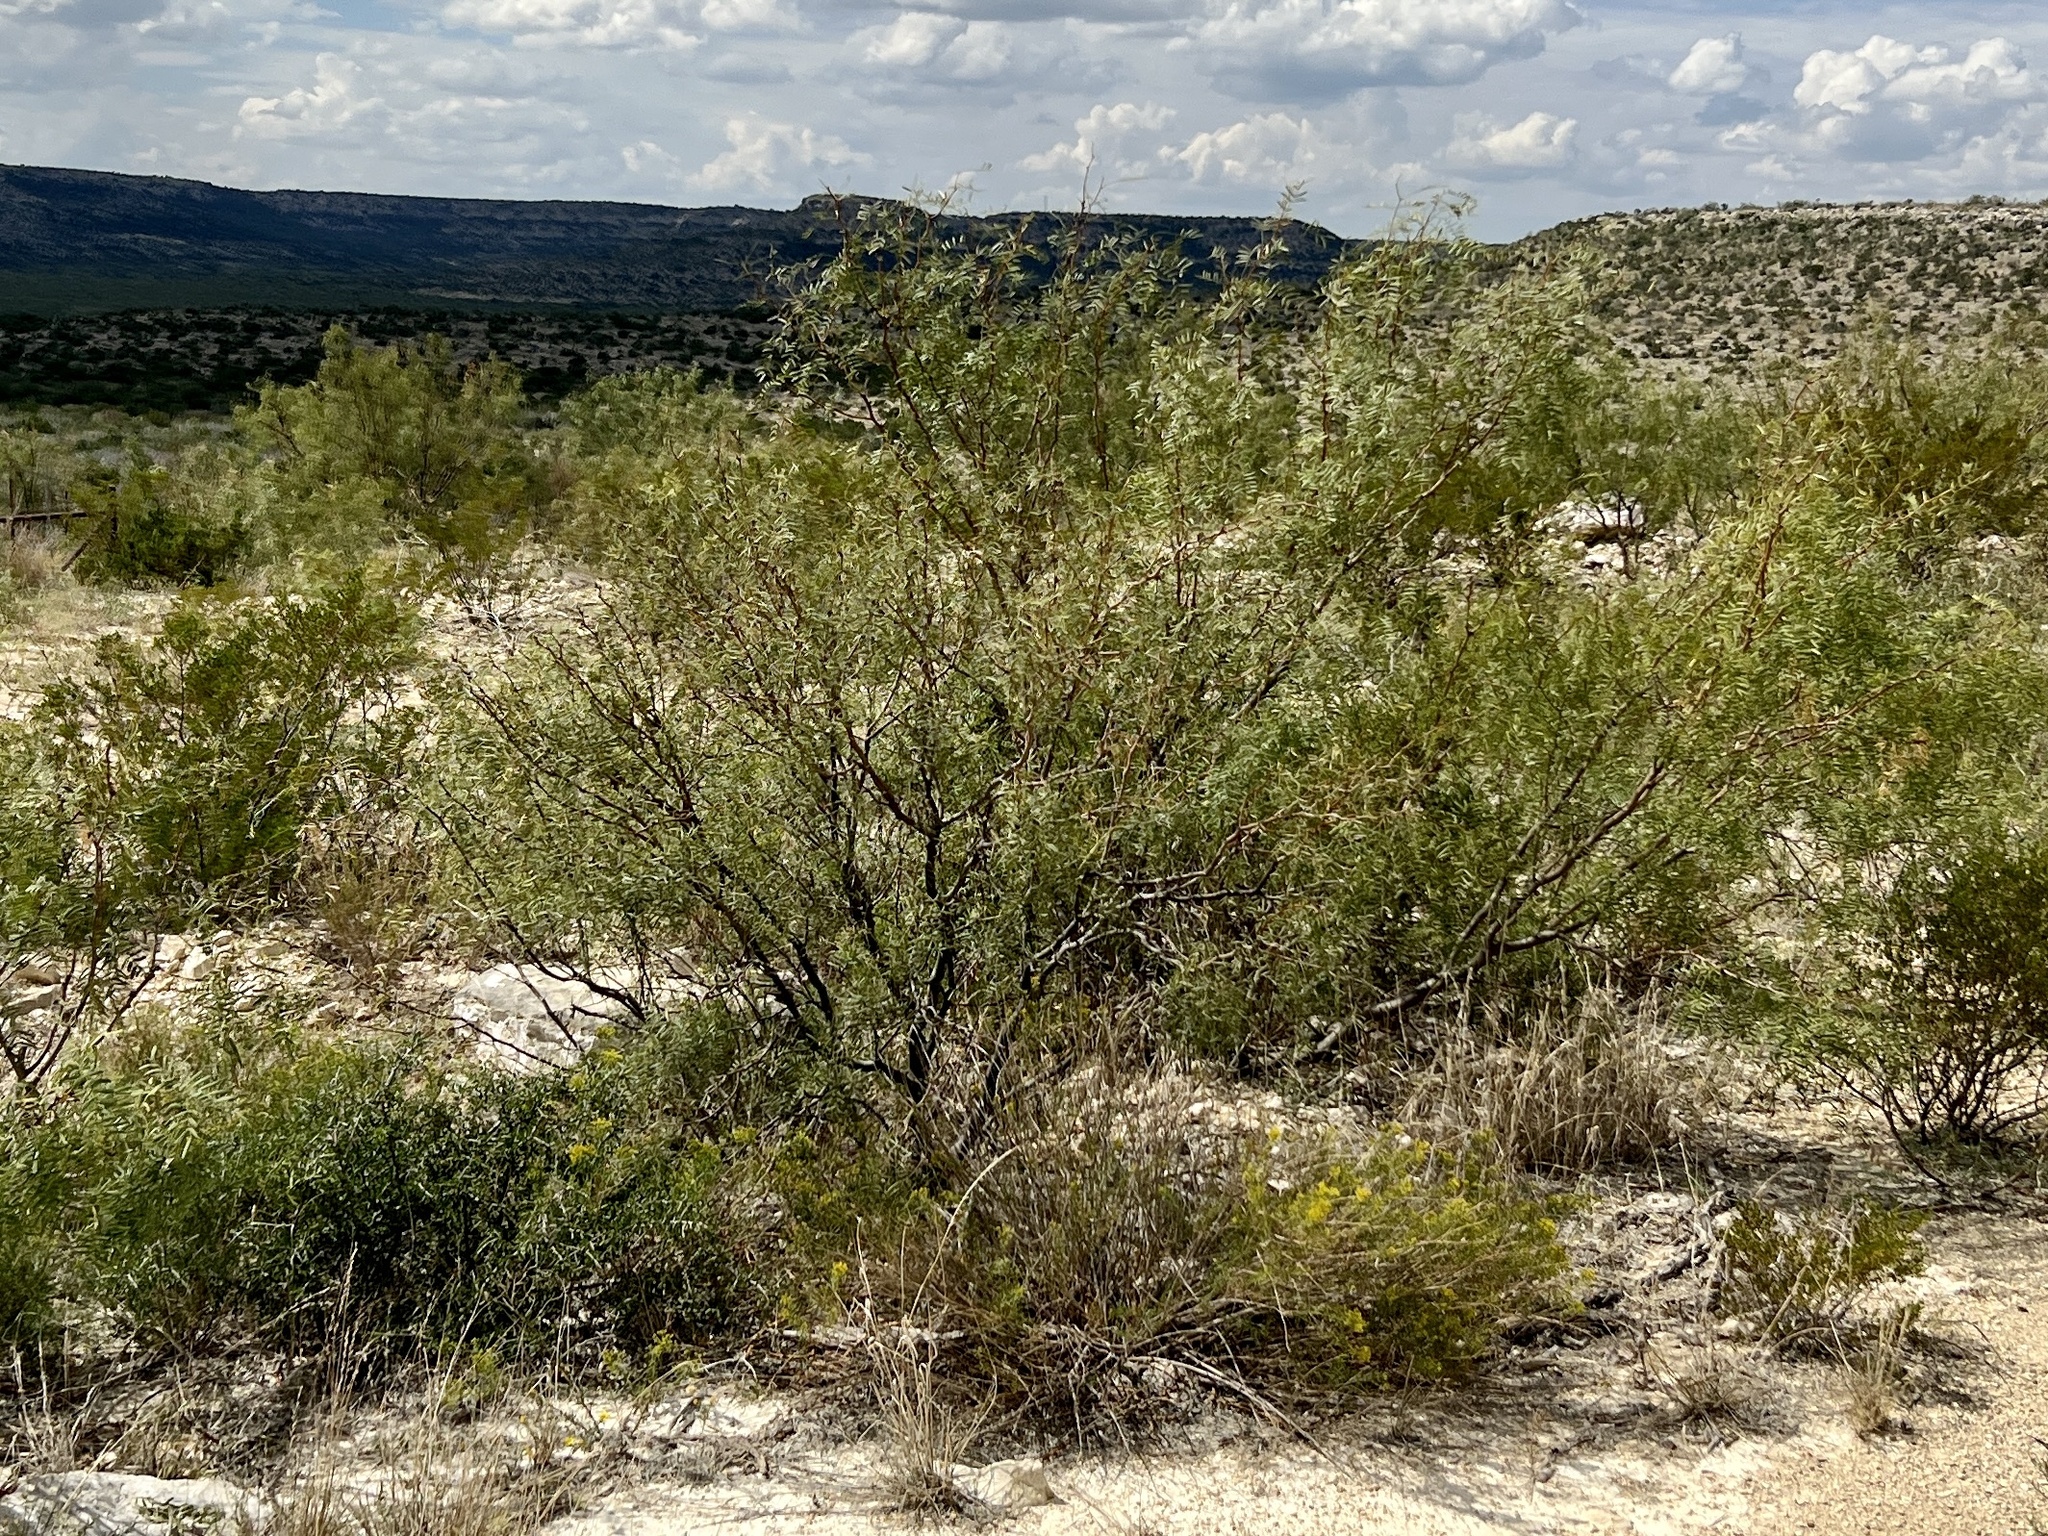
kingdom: Plantae
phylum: Tracheophyta
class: Magnoliopsida
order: Fabales
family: Fabaceae
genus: Prosopis
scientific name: Prosopis glandulosa
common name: Honey mesquite
